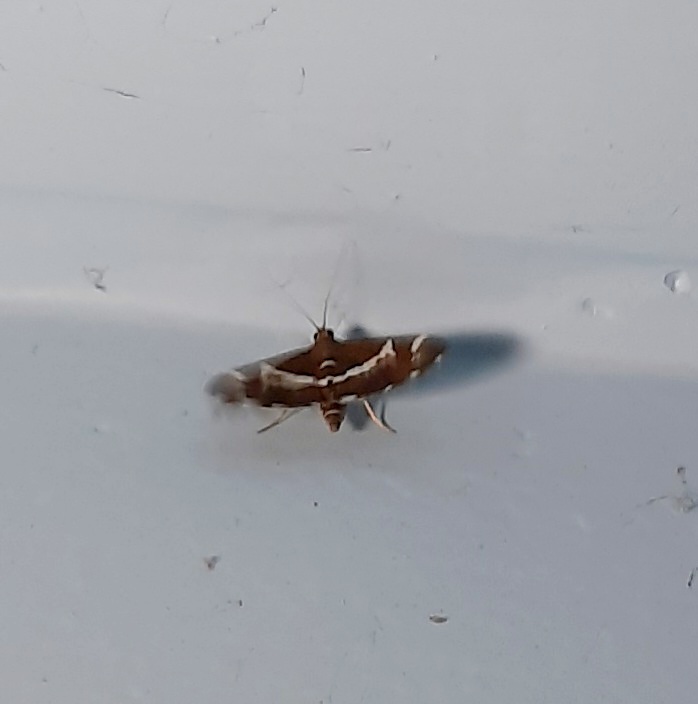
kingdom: Animalia
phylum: Arthropoda
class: Insecta
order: Lepidoptera
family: Crambidae
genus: Spoladea
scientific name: Spoladea recurvalis
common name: Beet webworm moth
